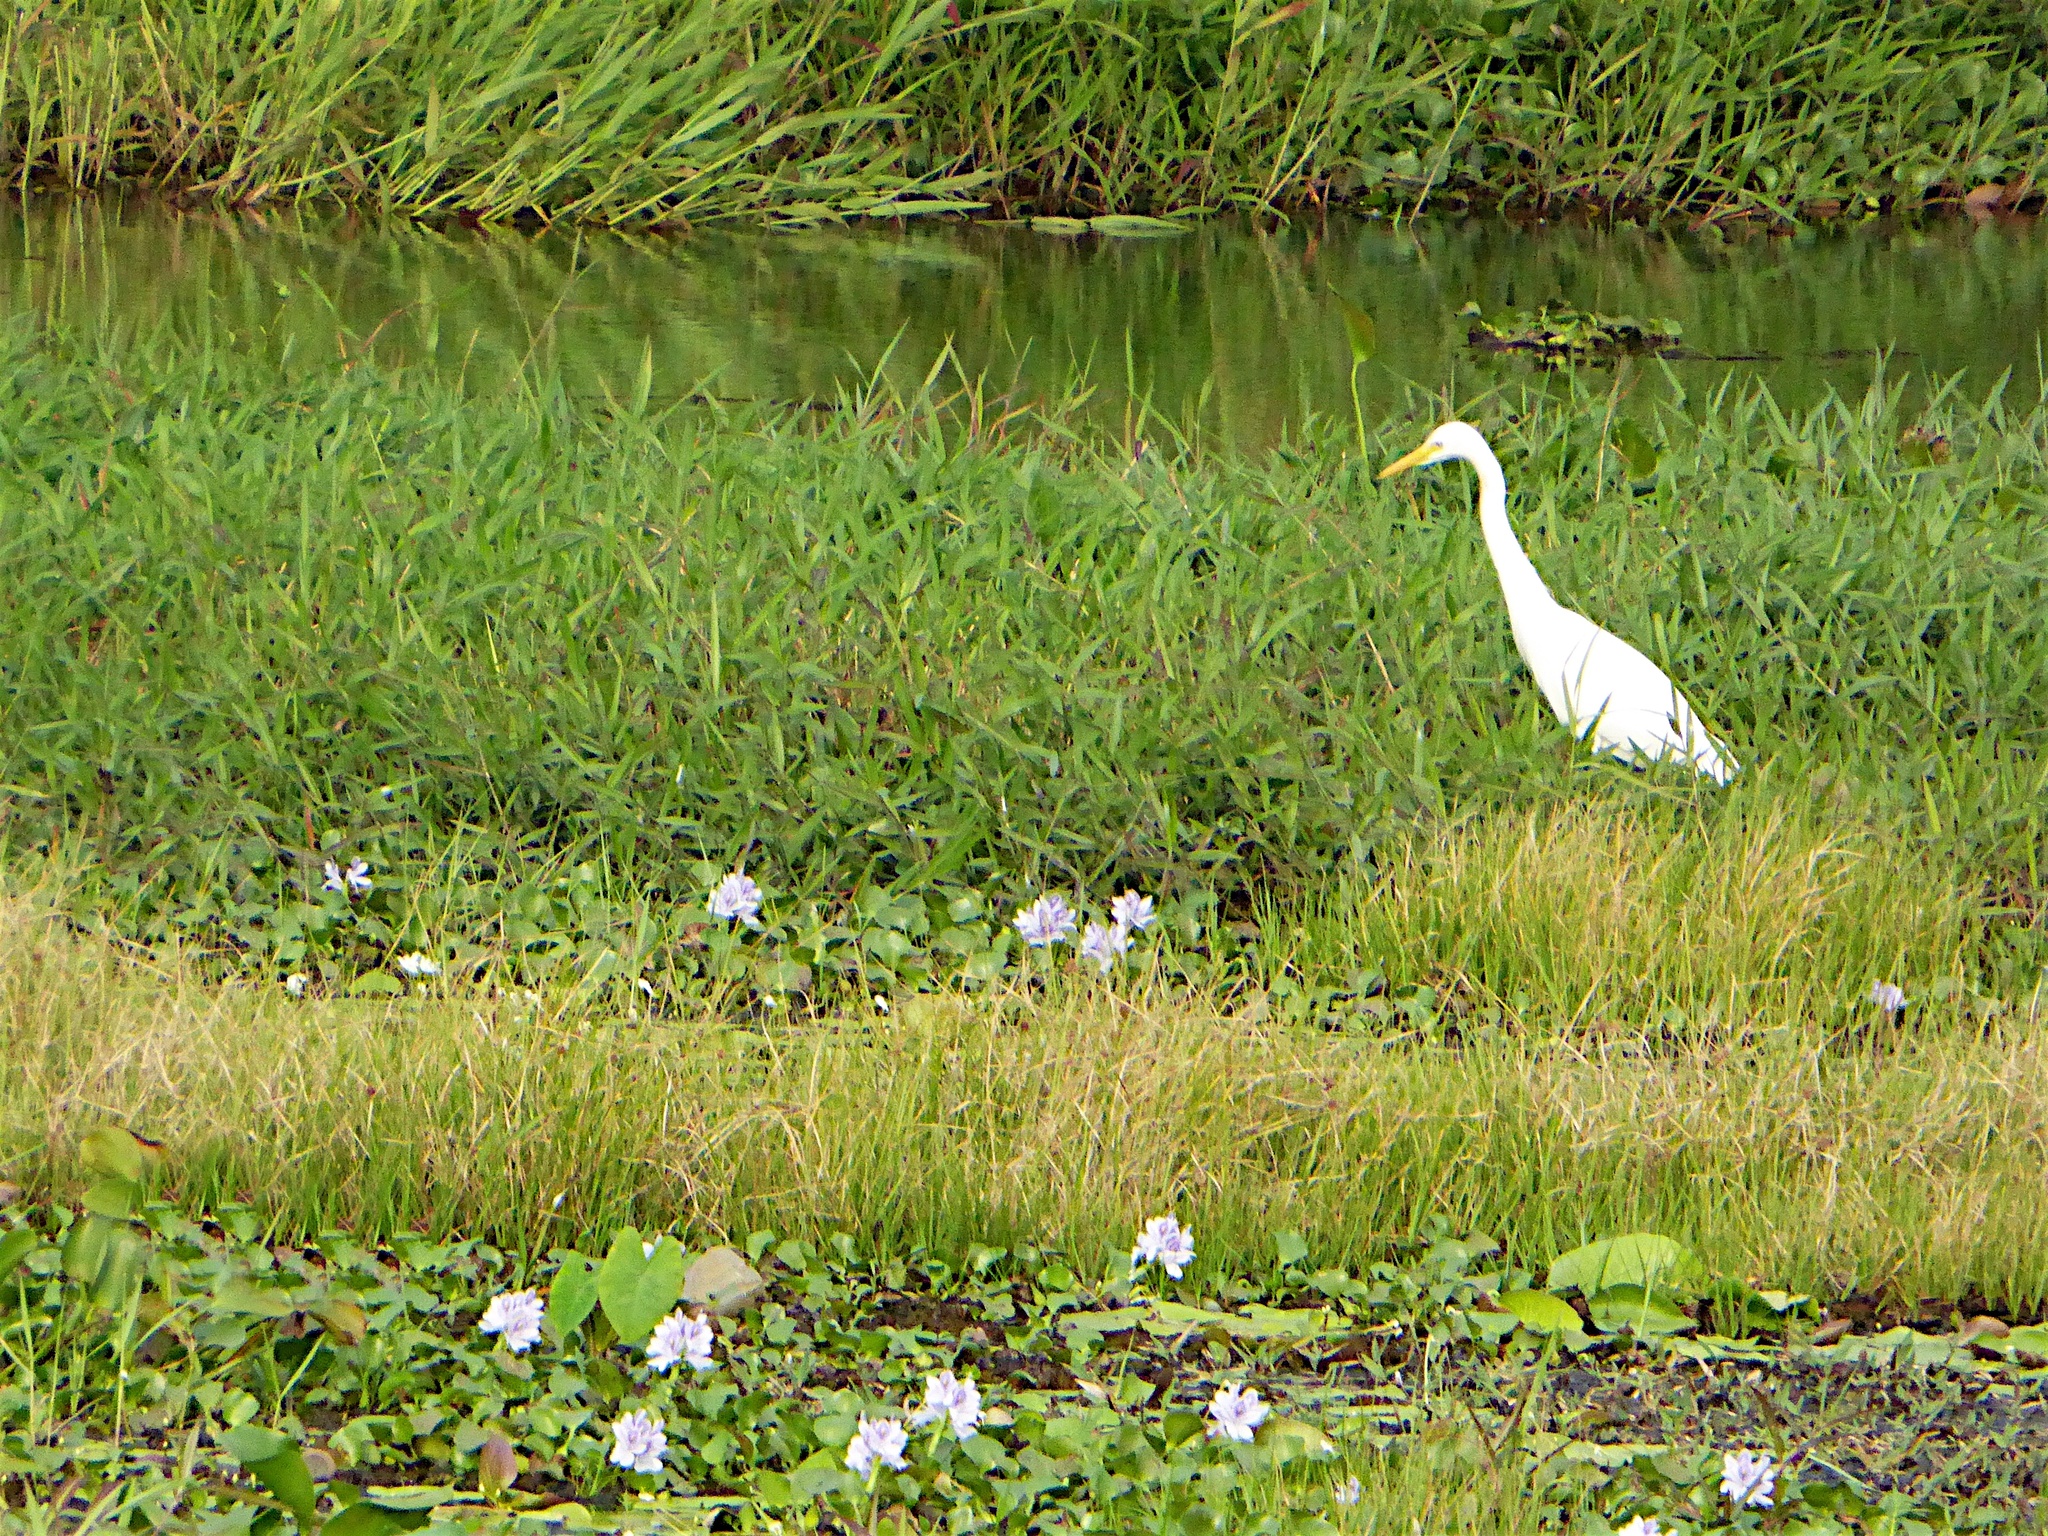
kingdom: Animalia
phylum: Chordata
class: Aves
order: Pelecaniformes
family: Ardeidae
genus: Egretta
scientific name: Egretta intermedia
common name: Intermediate egret
